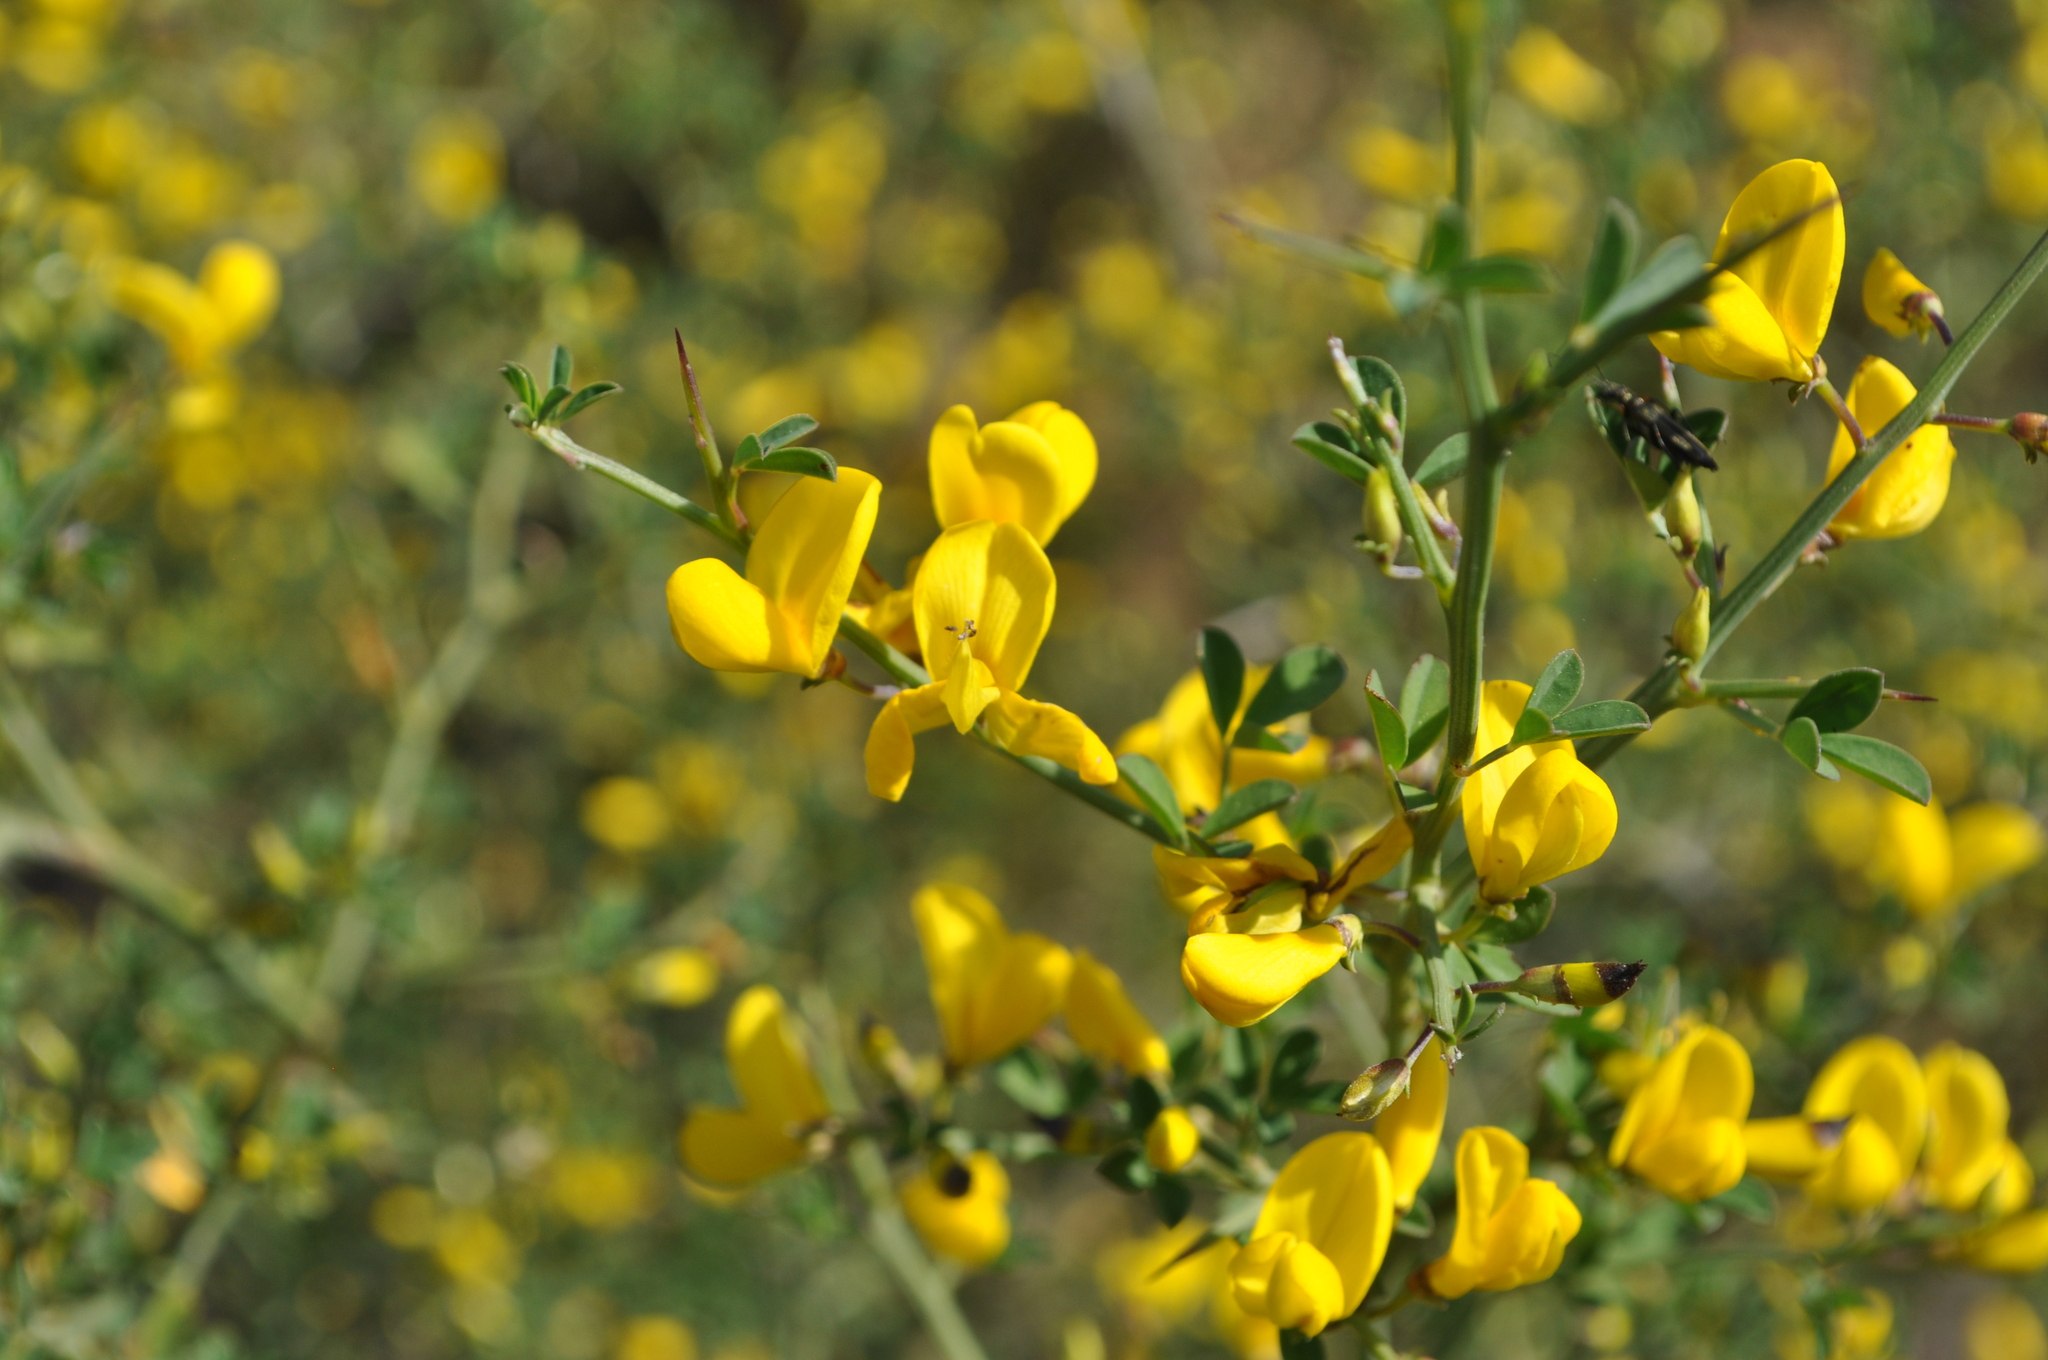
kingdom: Plantae
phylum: Tracheophyta
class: Magnoliopsida
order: Fabales
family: Fabaceae
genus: Calicotome
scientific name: Calicotome spinosa
